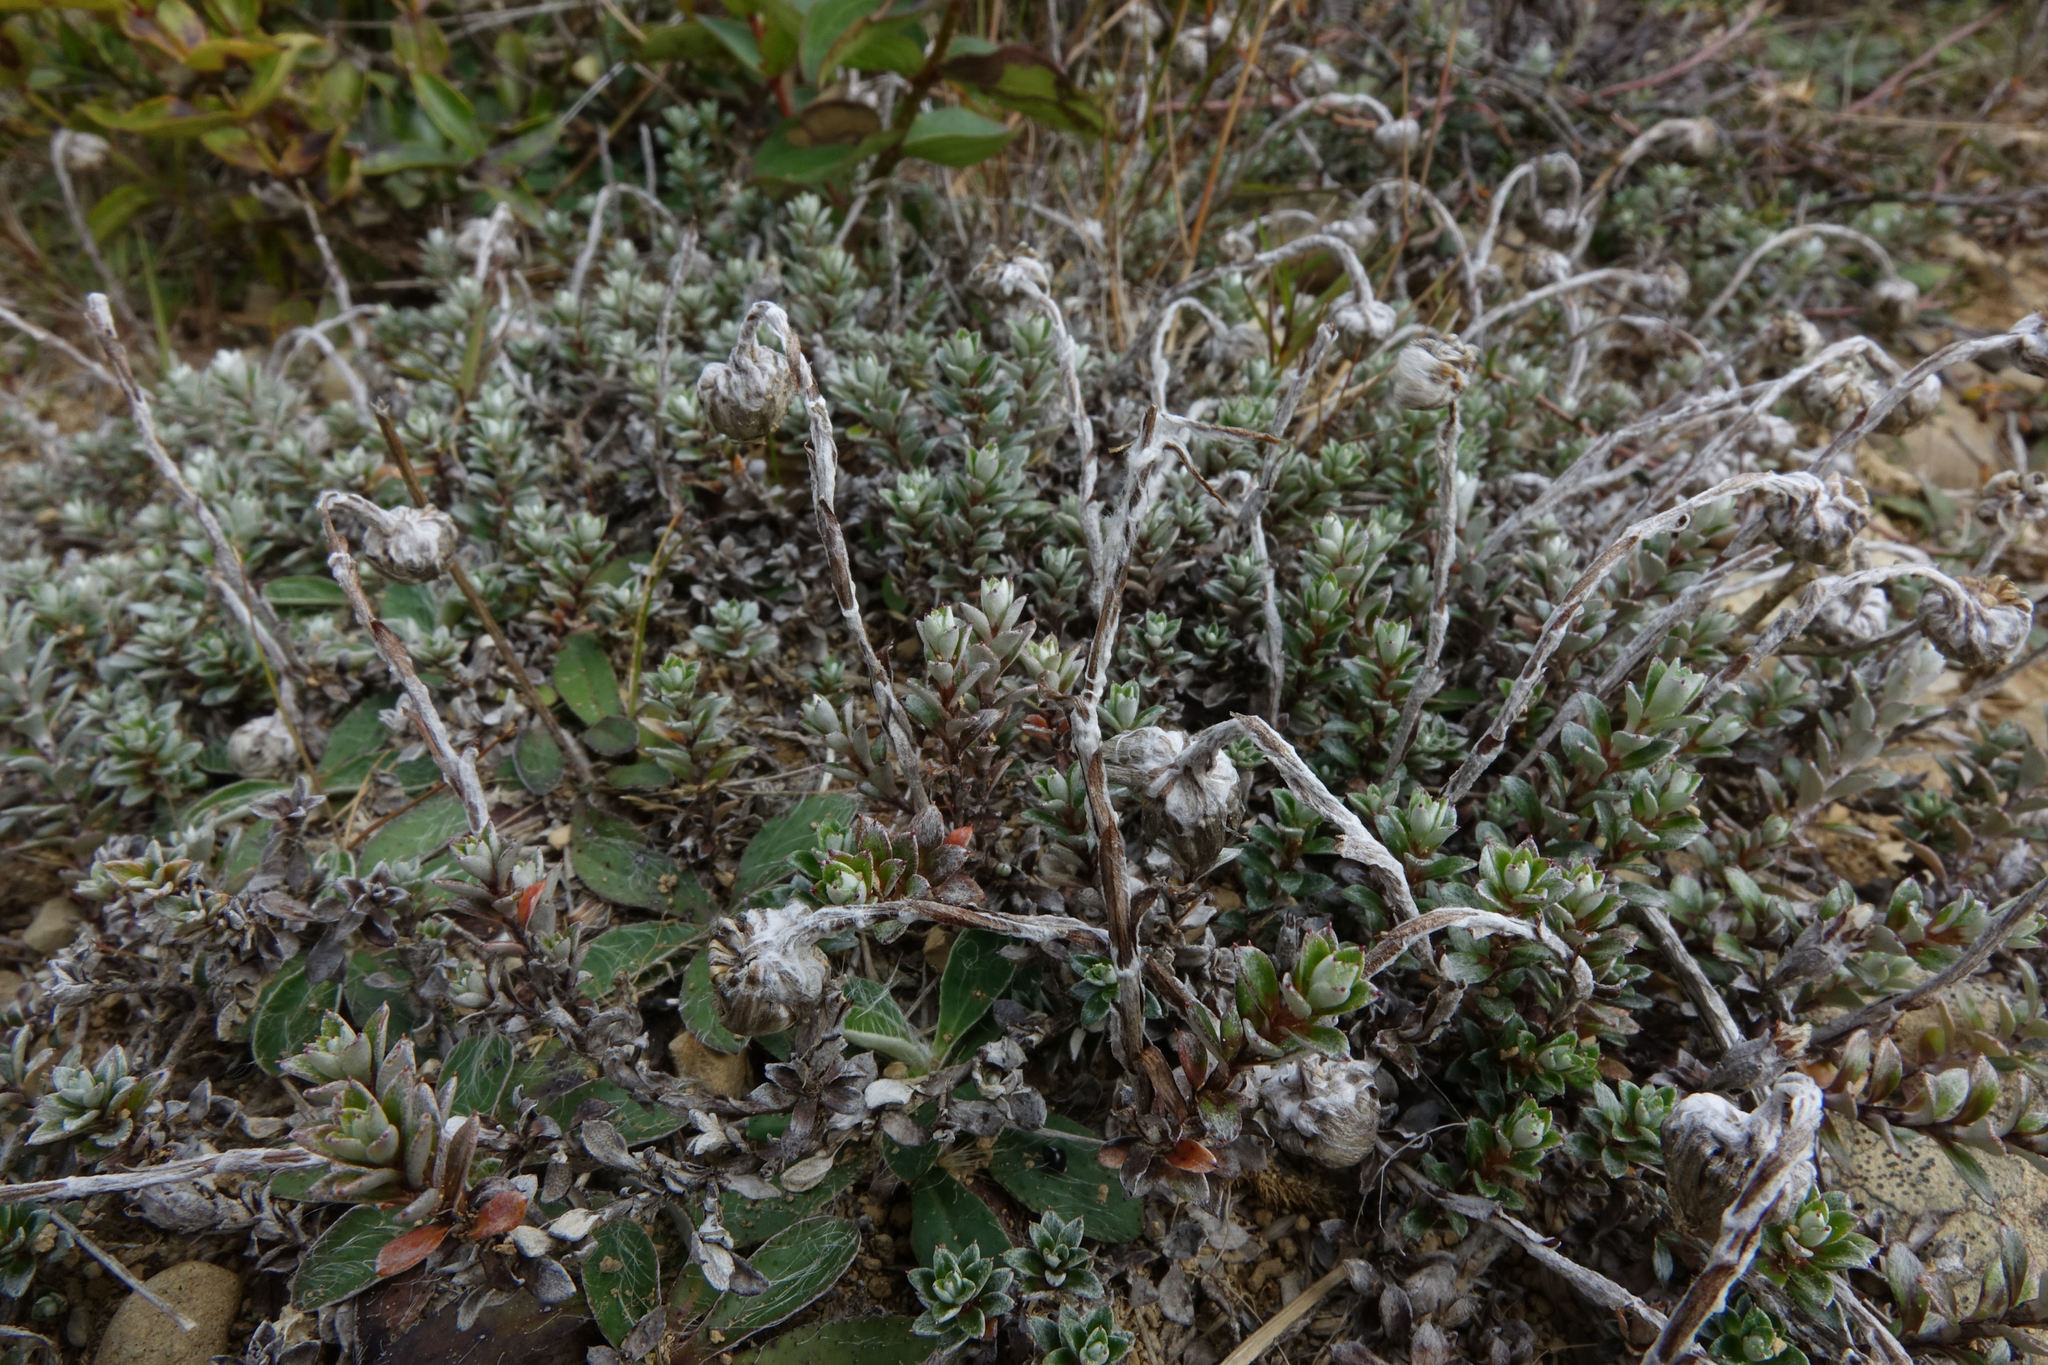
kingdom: Plantae
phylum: Tracheophyta
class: Magnoliopsida
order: Asterales
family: Asteraceae
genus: Anaphalioides
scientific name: Anaphalioides bellidioides
